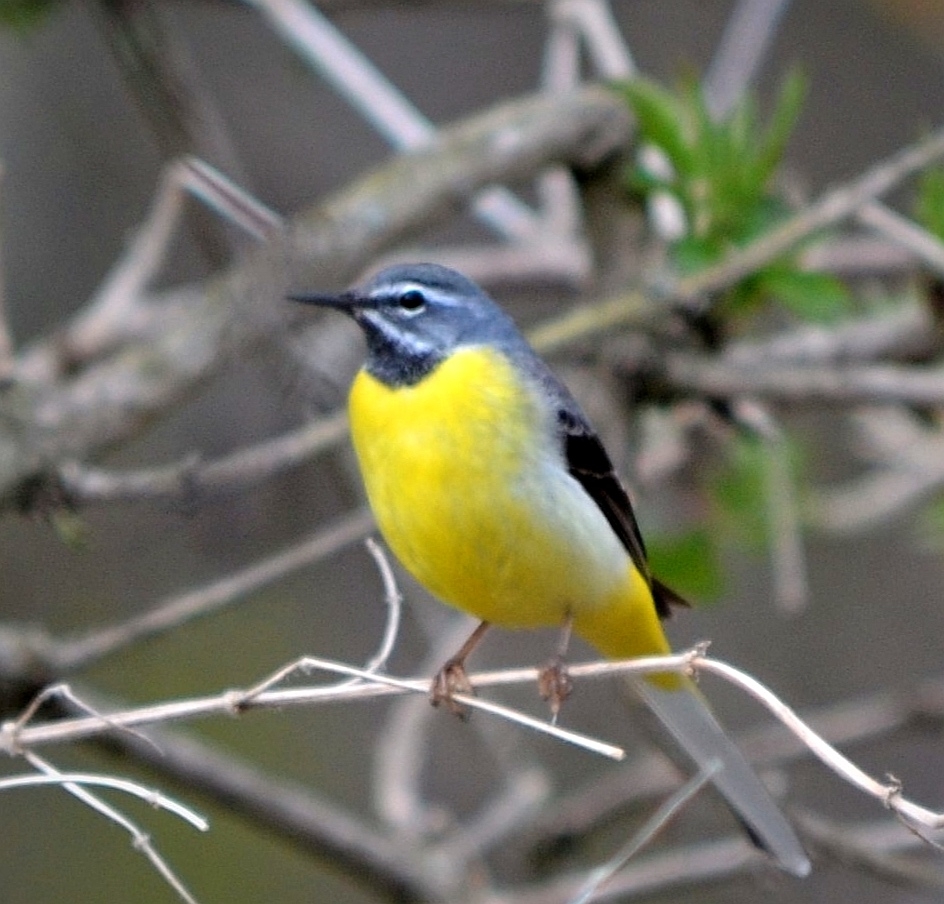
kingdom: Animalia
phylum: Chordata
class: Aves
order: Passeriformes
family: Motacillidae
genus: Motacilla
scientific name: Motacilla cinerea
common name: Grey wagtail
